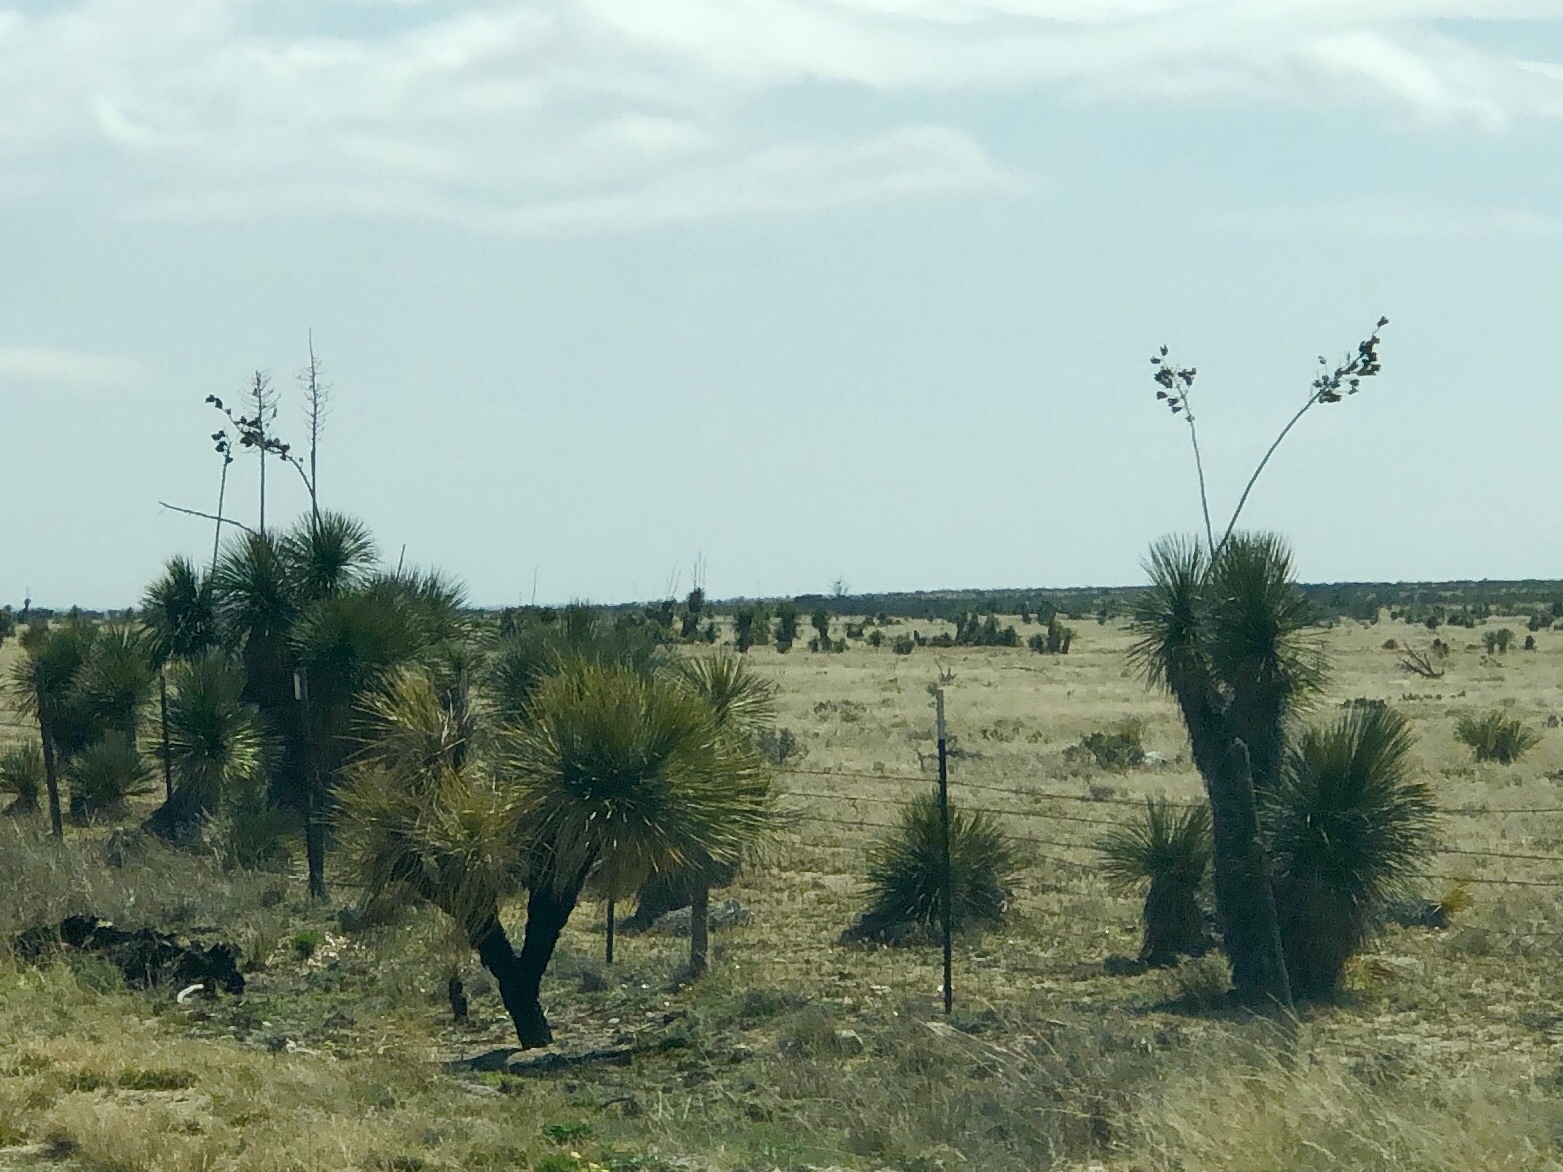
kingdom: Plantae
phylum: Tracheophyta
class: Liliopsida
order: Asparagales
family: Asparagaceae
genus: Yucca
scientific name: Yucca elata
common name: Palmella
